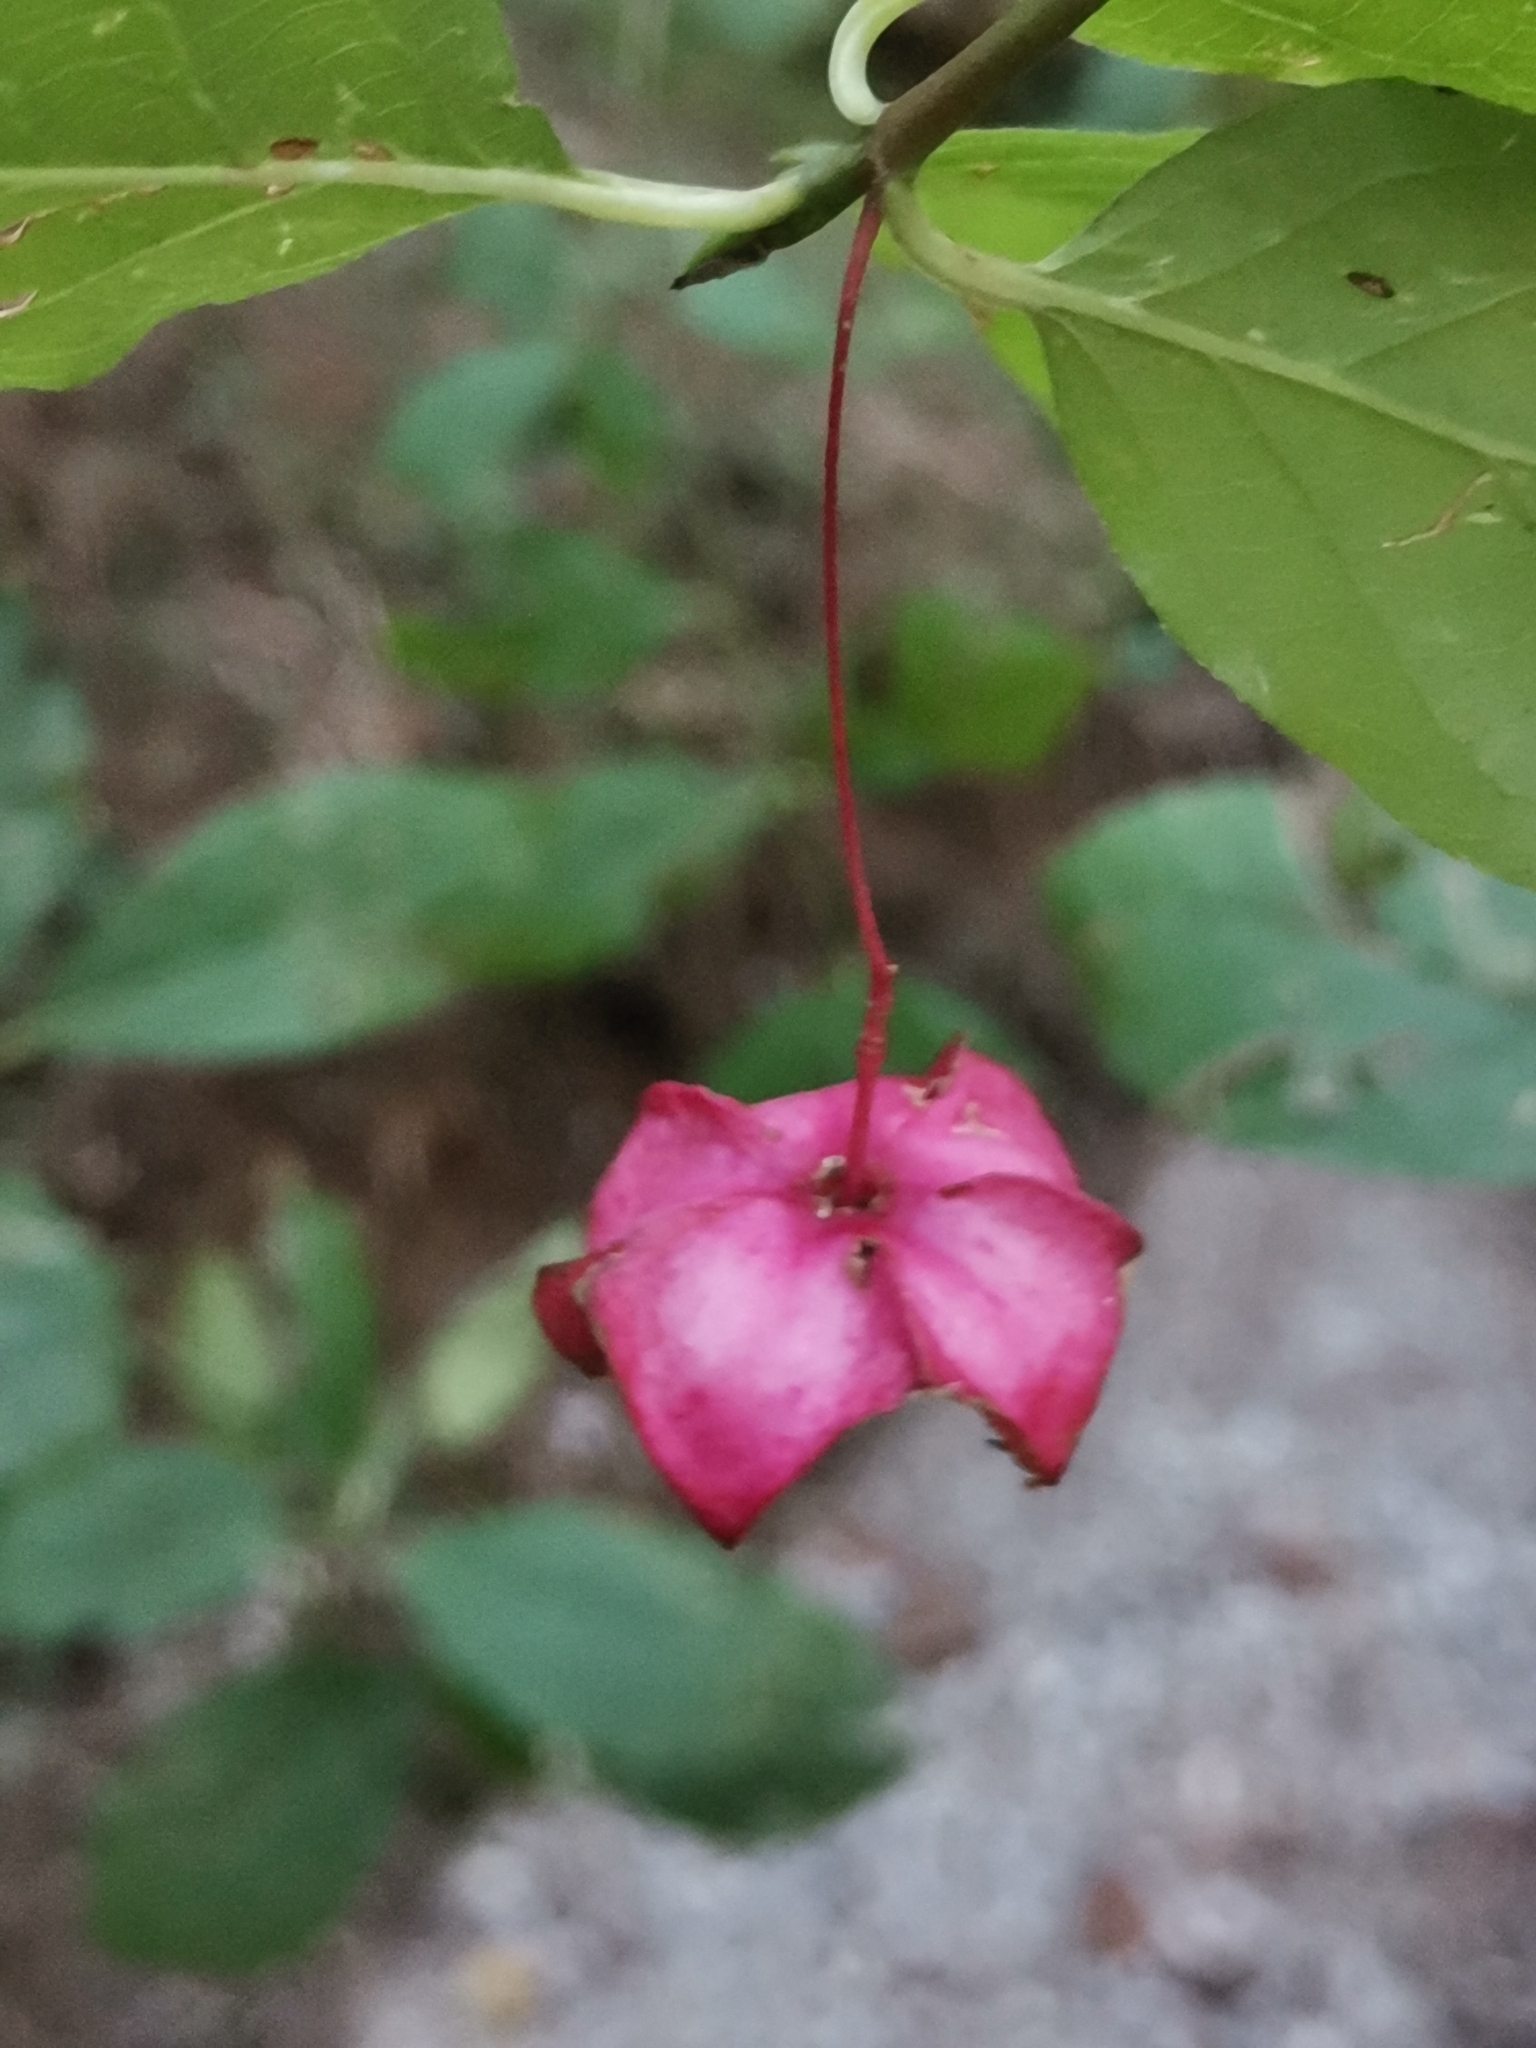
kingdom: Plantae
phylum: Tracheophyta
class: Magnoliopsida
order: Celastrales
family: Celastraceae
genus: Euonymus
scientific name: Euonymus latifolius
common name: Large-leaved spindle
